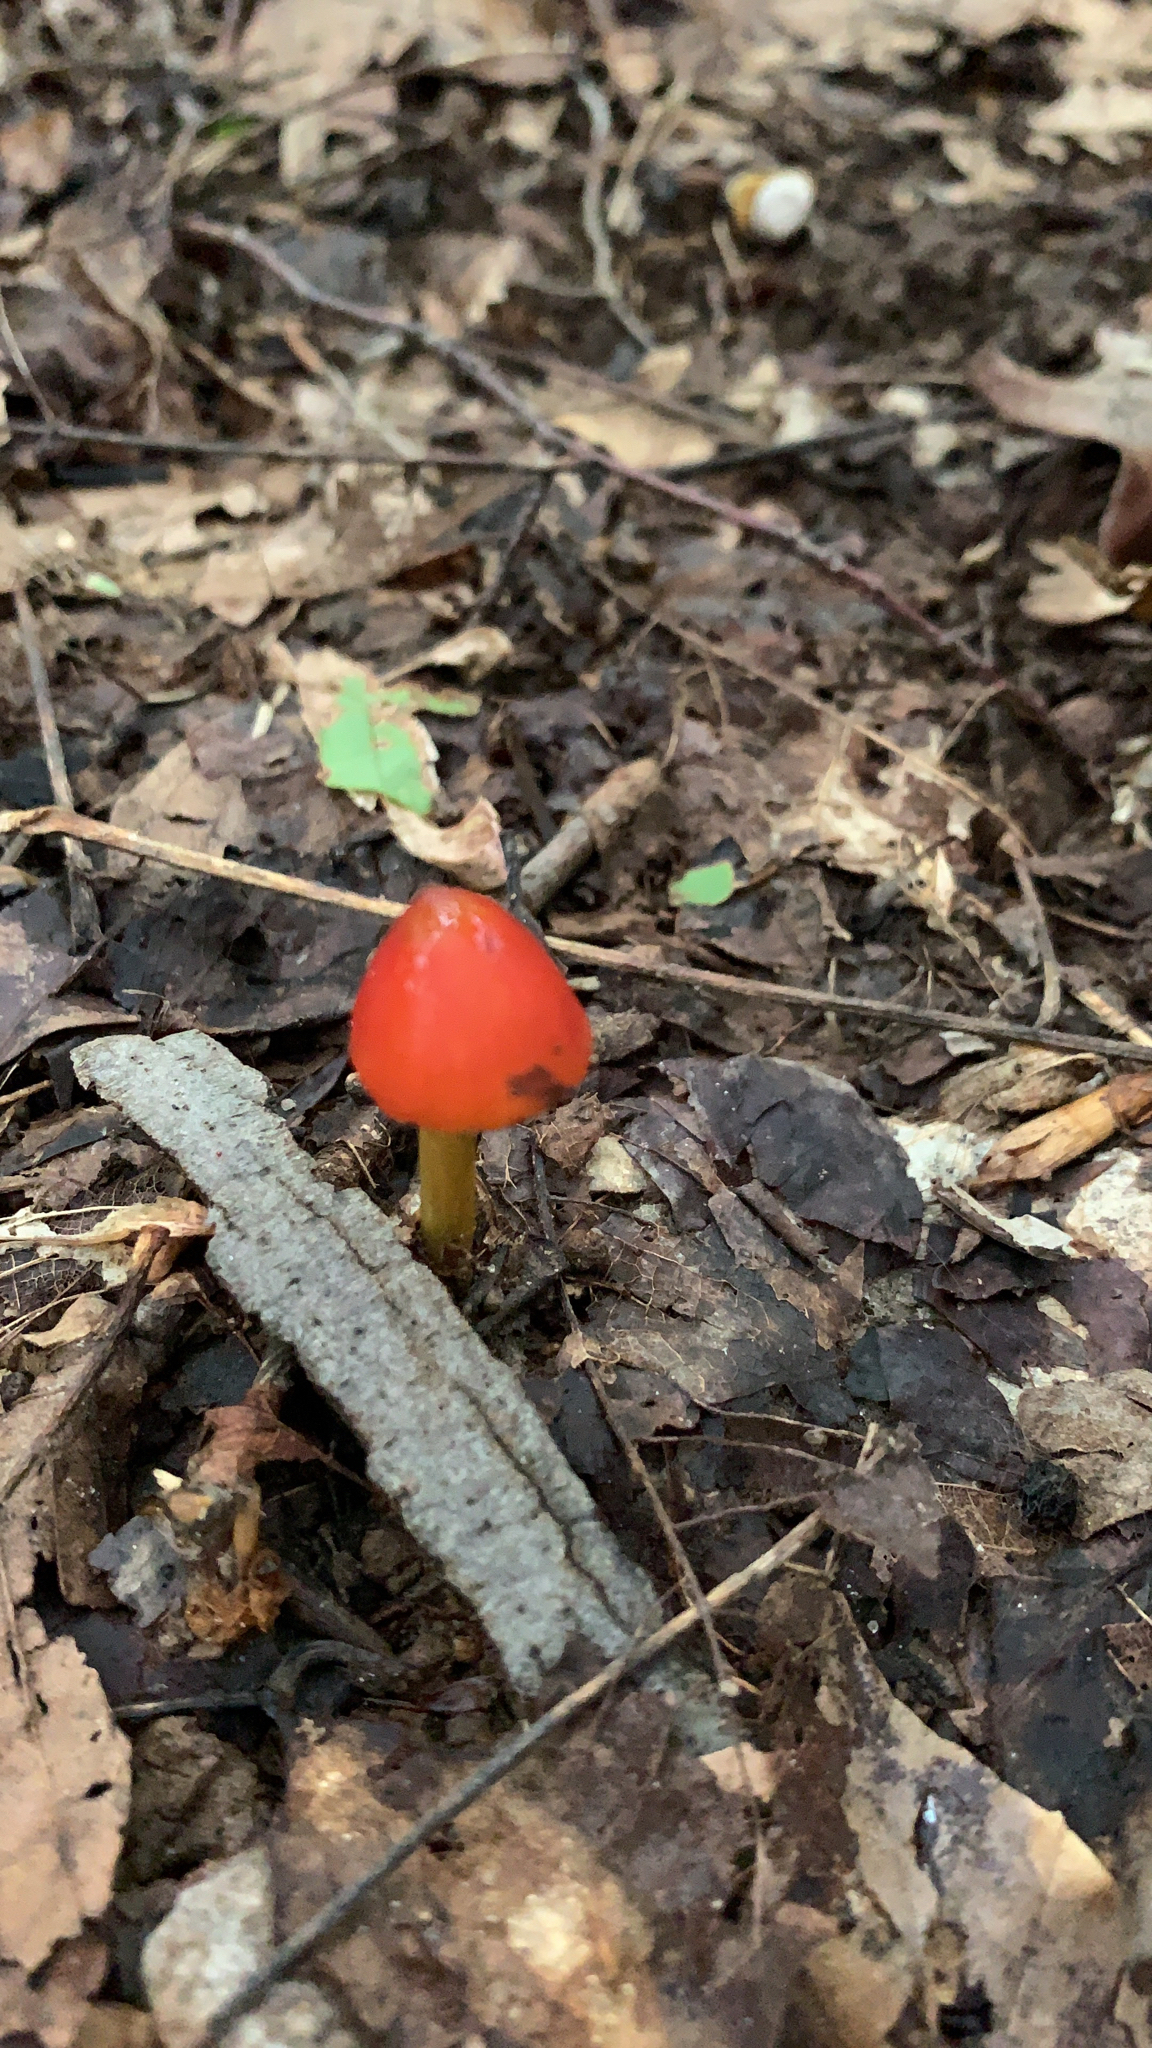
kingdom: Fungi
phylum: Basidiomycota
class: Agaricomycetes
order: Agaricales
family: Hygrophoraceae
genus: Hygrocybe
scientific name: Hygrocybe conica
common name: Blackening wax-cap
